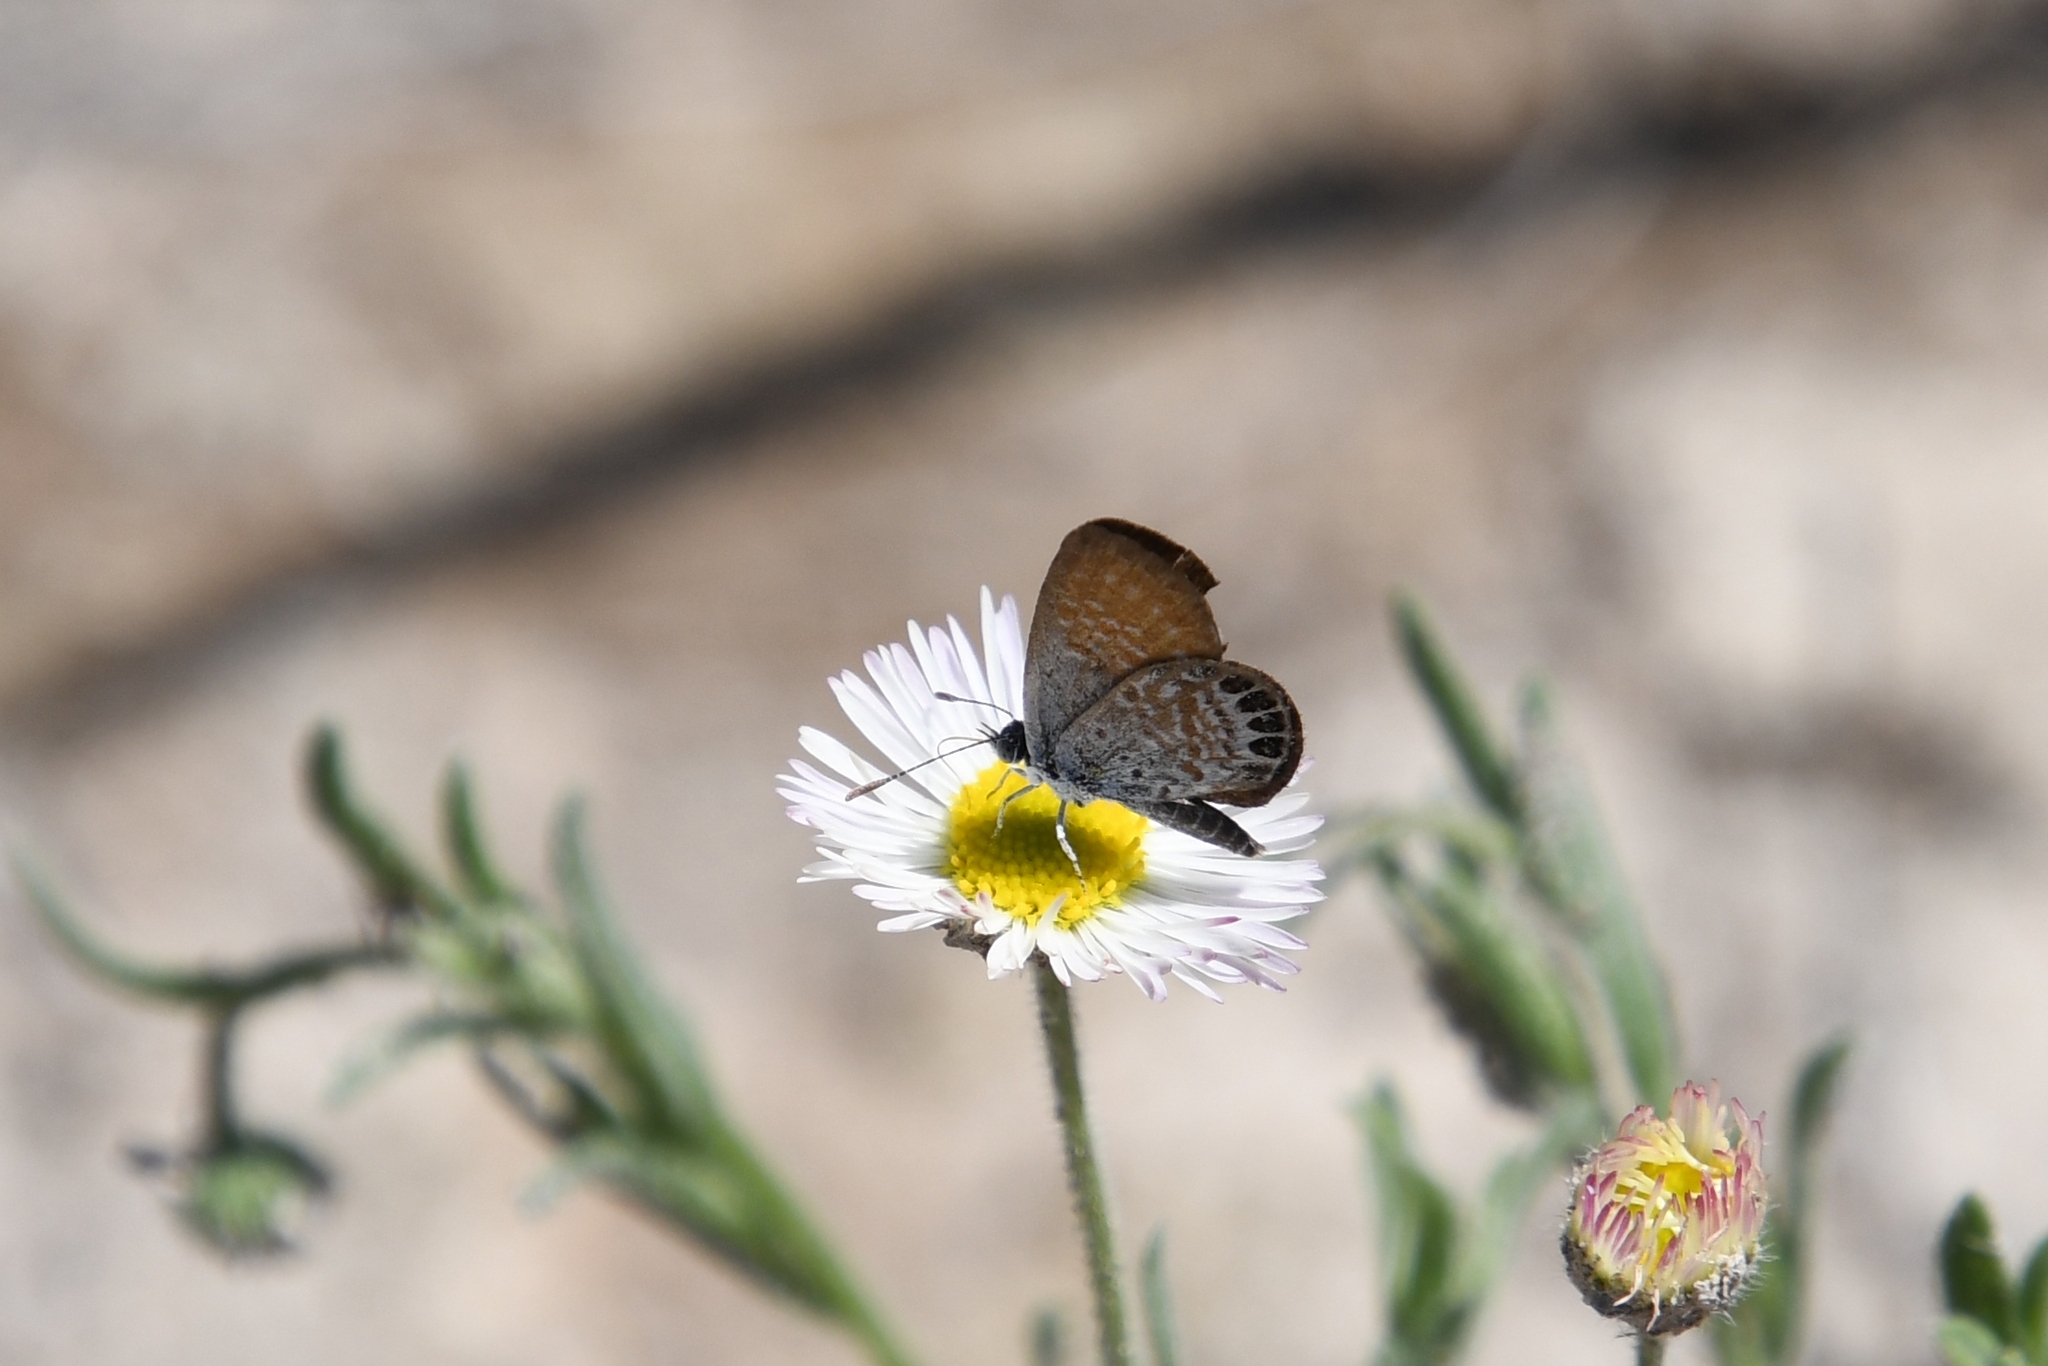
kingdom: Animalia
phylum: Arthropoda
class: Insecta
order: Lepidoptera
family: Lycaenidae
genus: Brephidium
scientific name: Brephidium exilis
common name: Pygmy blue
